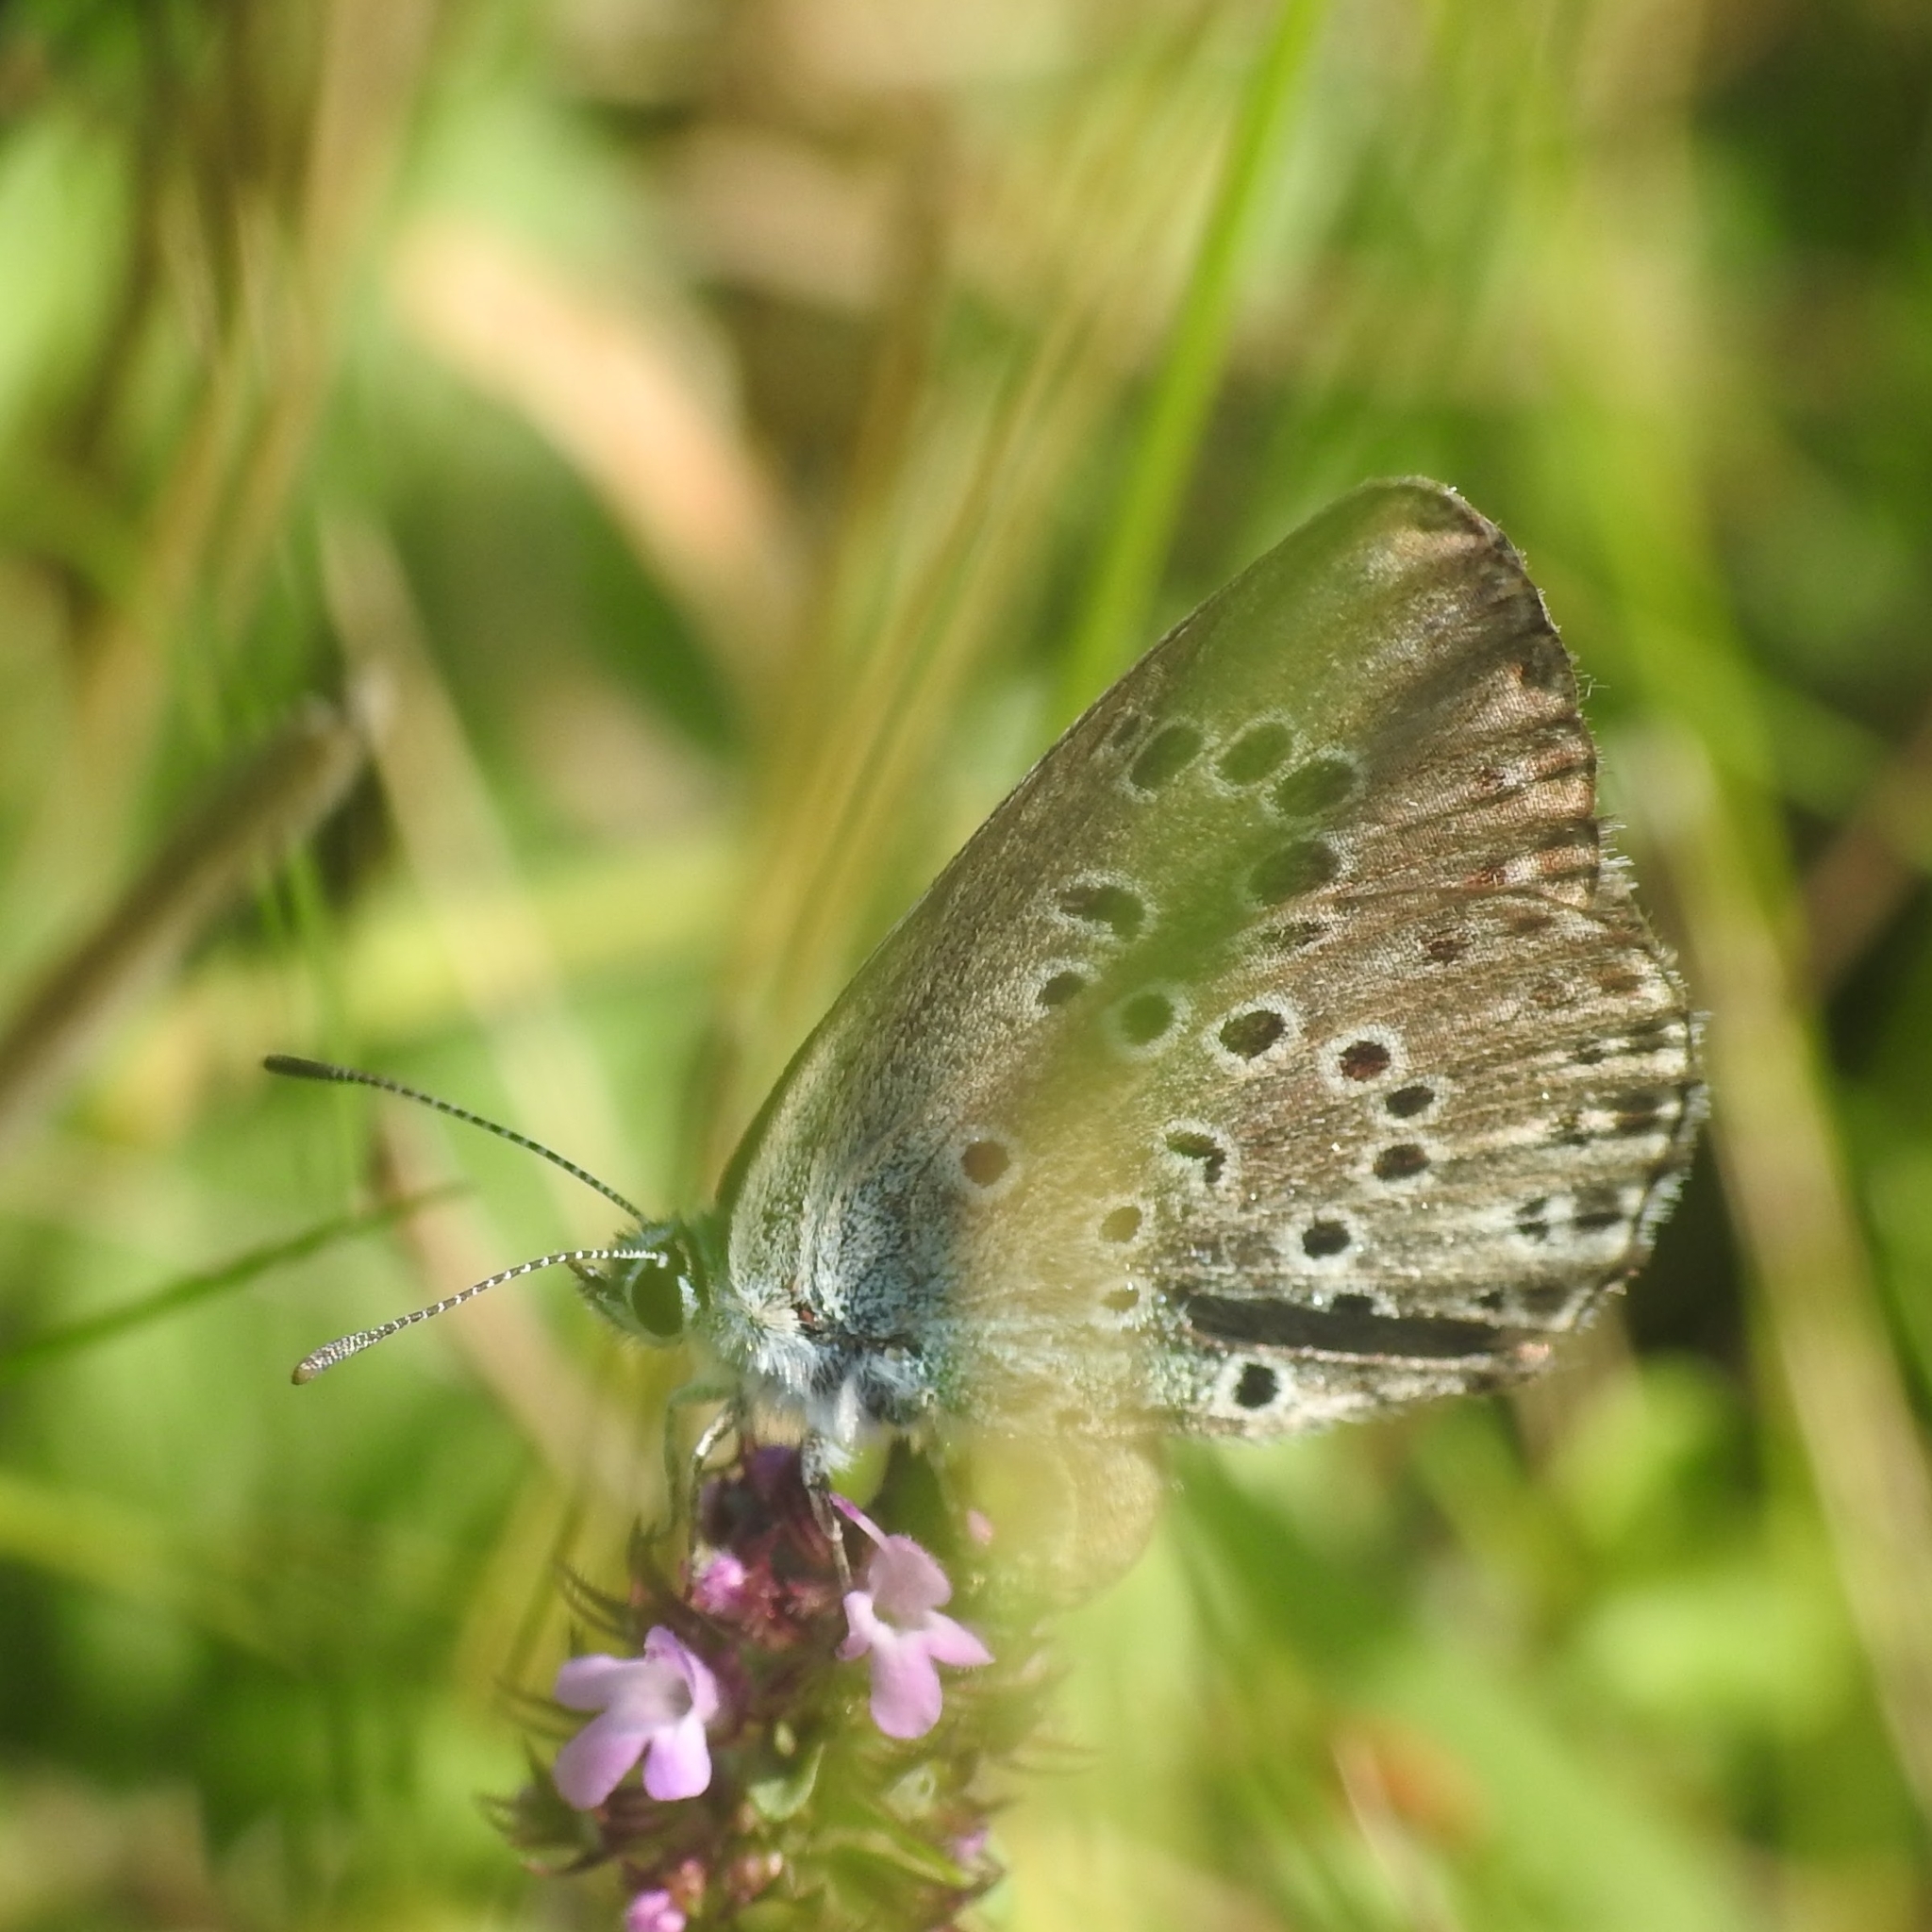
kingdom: Animalia
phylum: Arthropoda
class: Insecta
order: Lepidoptera
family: Lycaenidae
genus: Maculinea
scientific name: Maculinea arion
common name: Large blue
